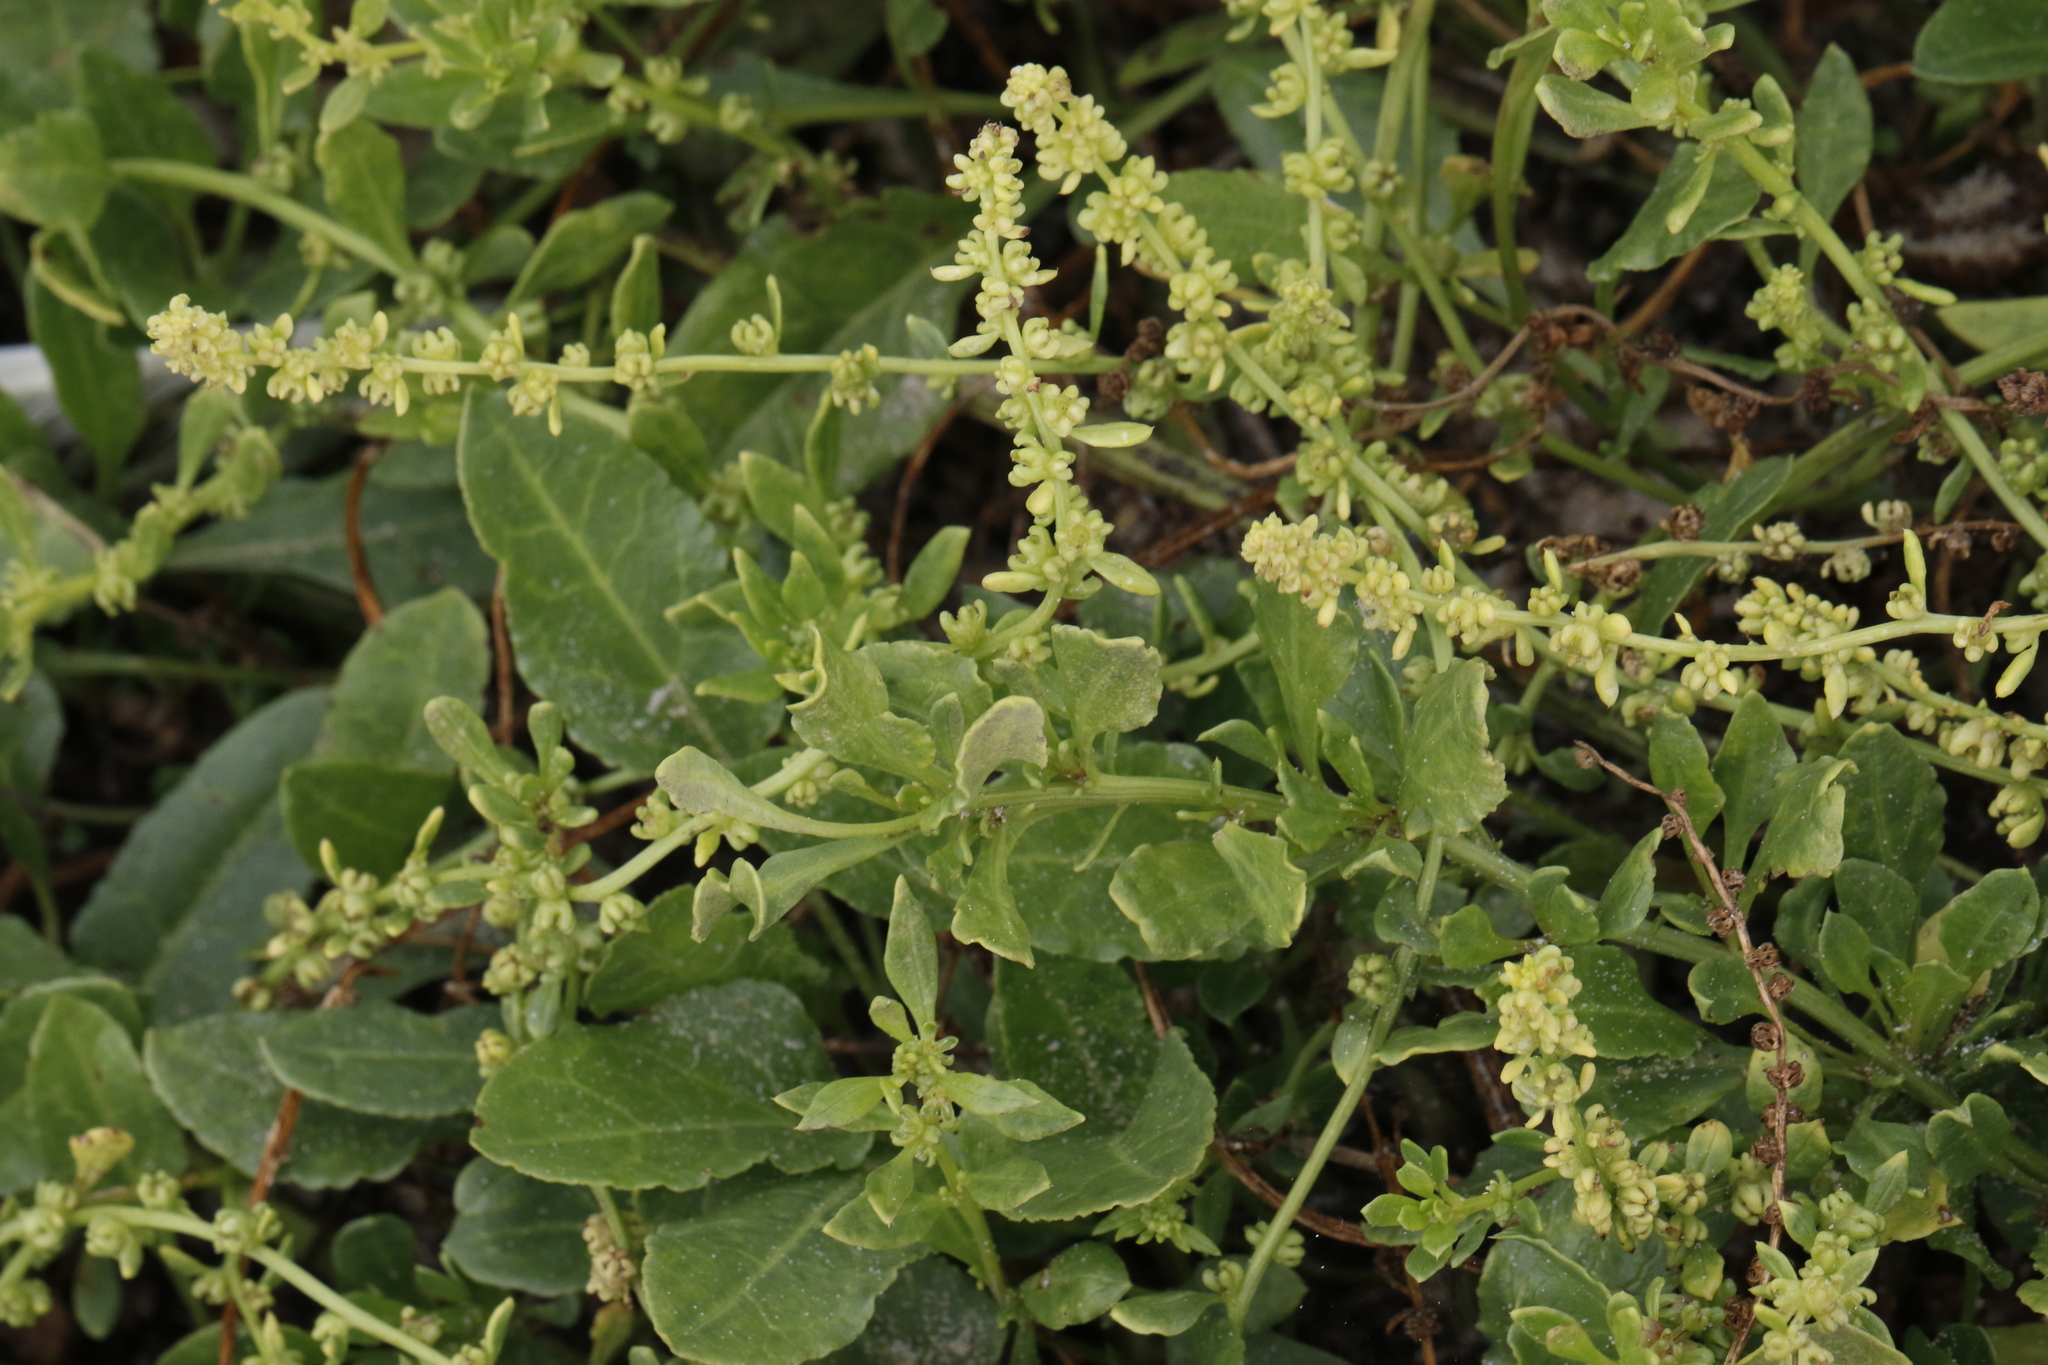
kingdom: Plantae
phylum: Tracheophyta
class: Magnoliopsida
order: Caryophyllales
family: Amaranthaceae
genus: Beta
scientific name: Beta vulgaris
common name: Beet
